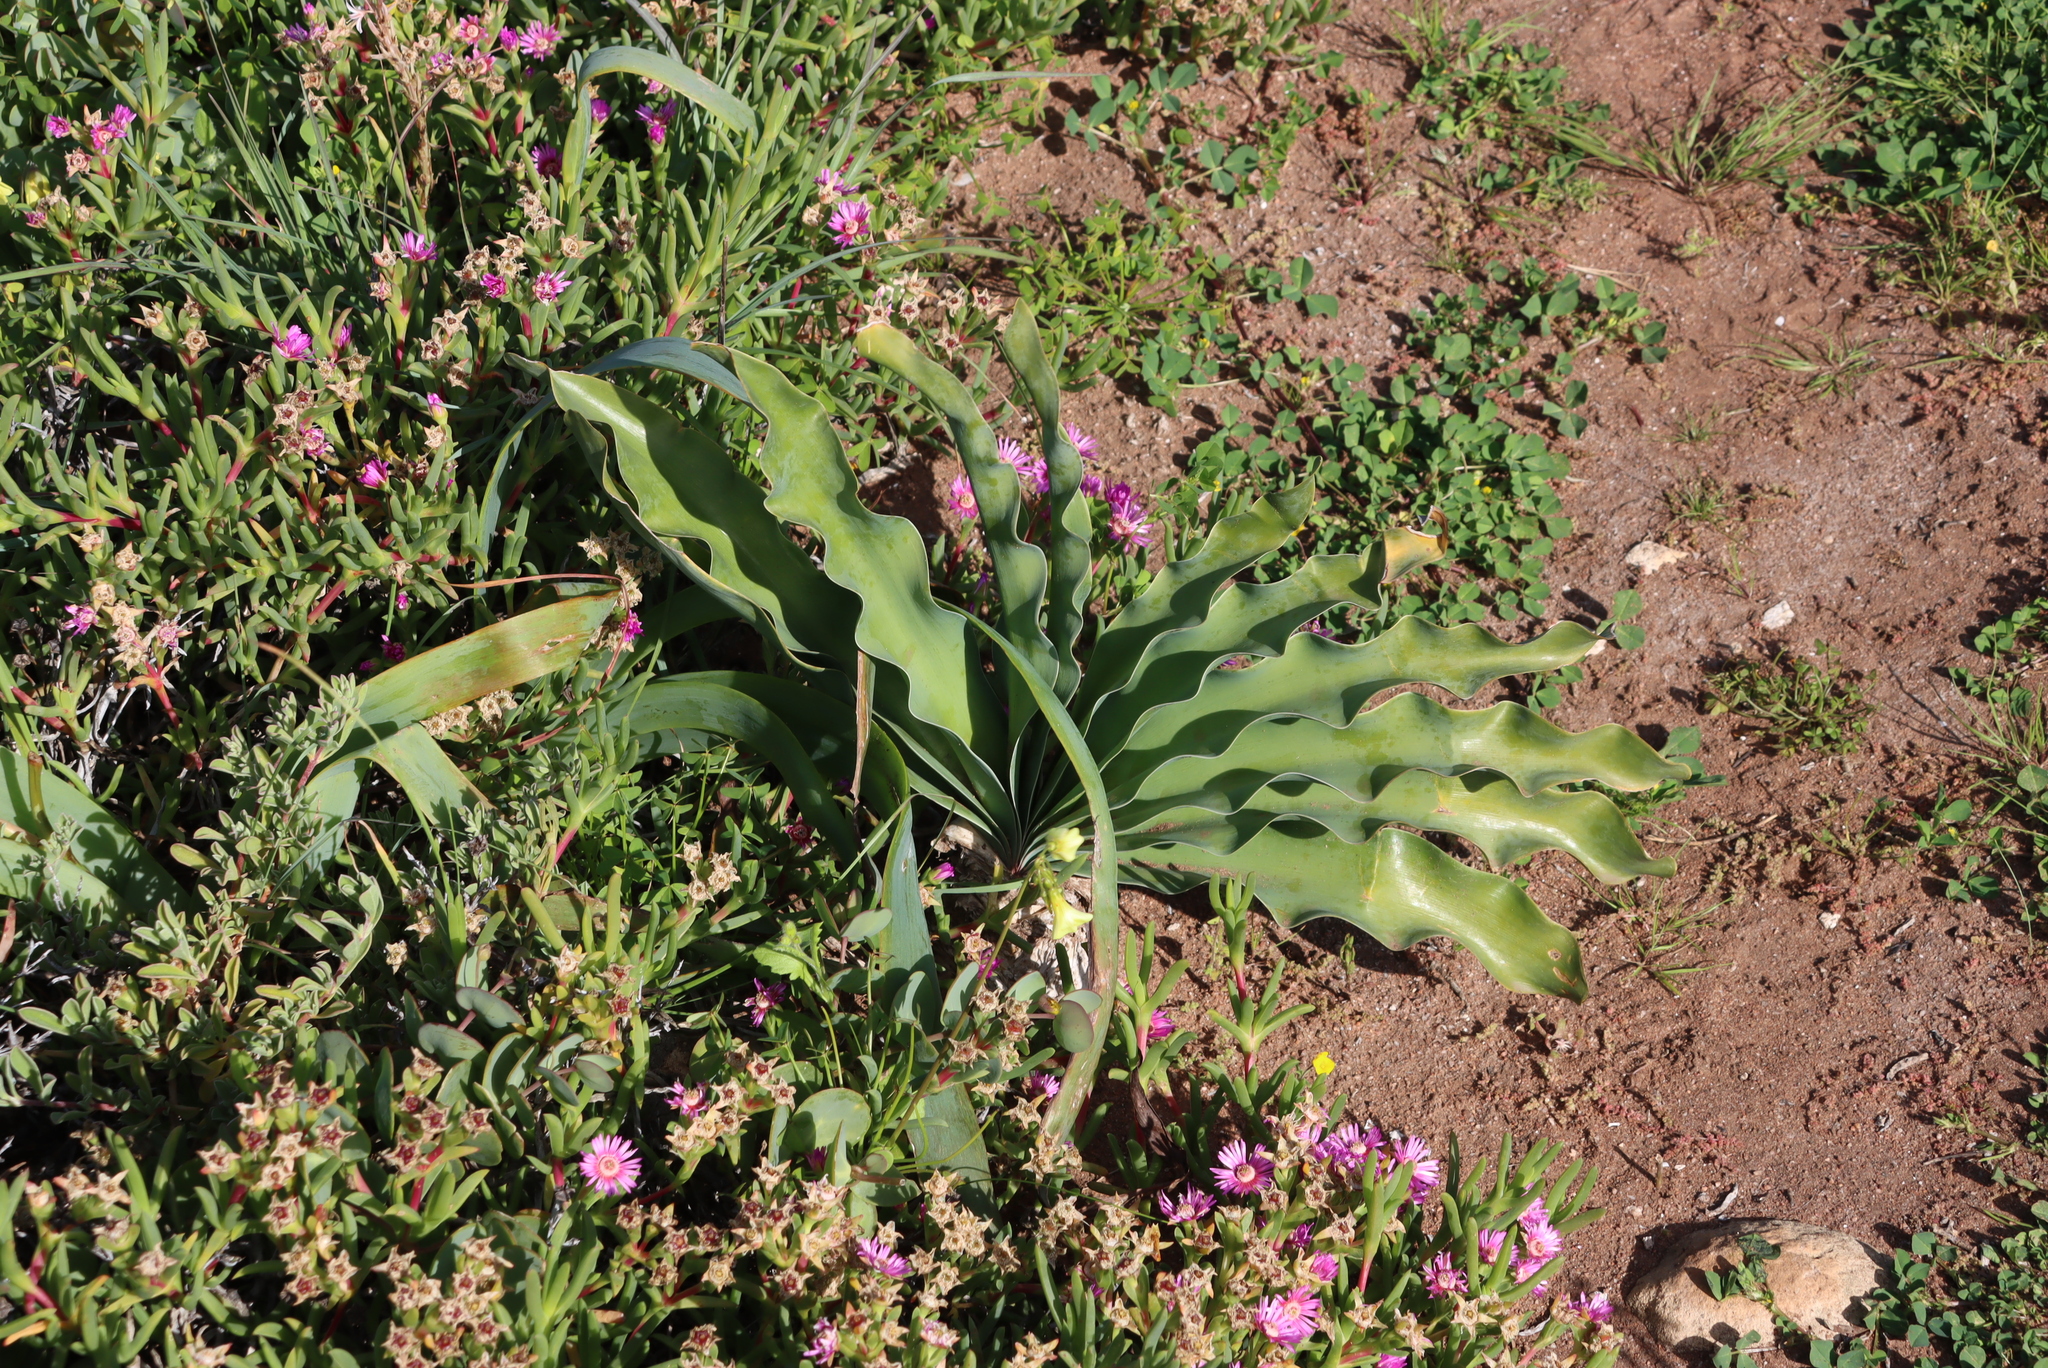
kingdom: Plantae
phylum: Tracheophyta
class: Liliopsida
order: Asparagales
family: Amaryllidaceae
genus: Boophone
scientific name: Boophone haemanthoides
